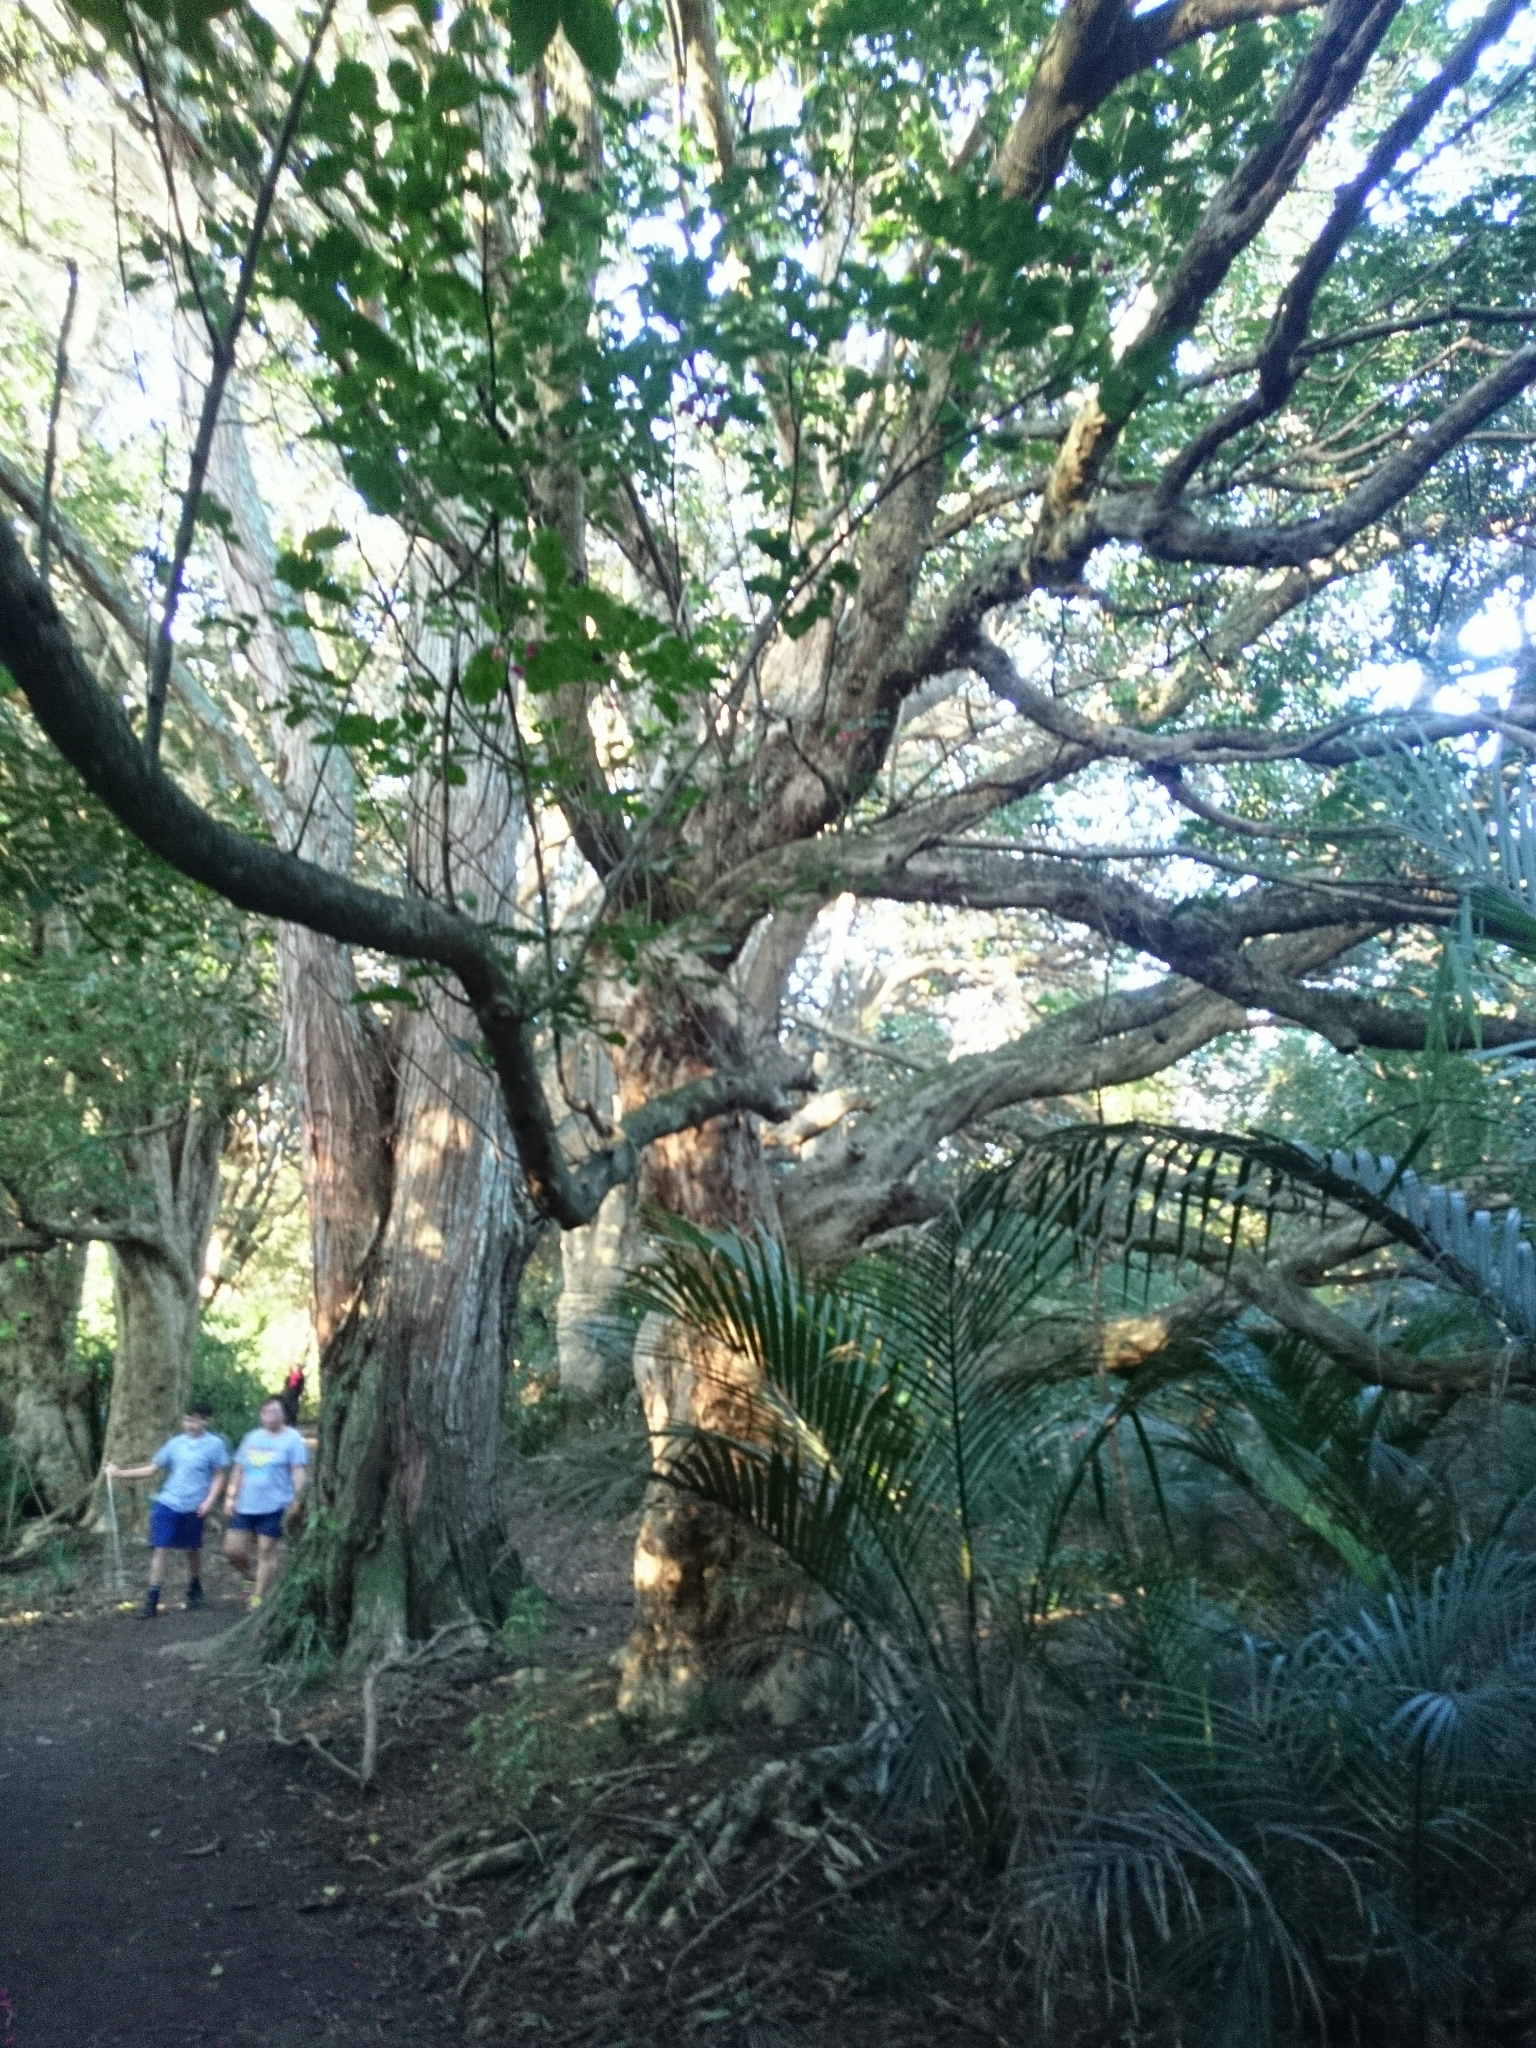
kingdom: Plantae
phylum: Tracheophyta
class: Magnoliopsida
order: Lamiales
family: Lamiaceae
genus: Vitex
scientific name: Vitex lucens
